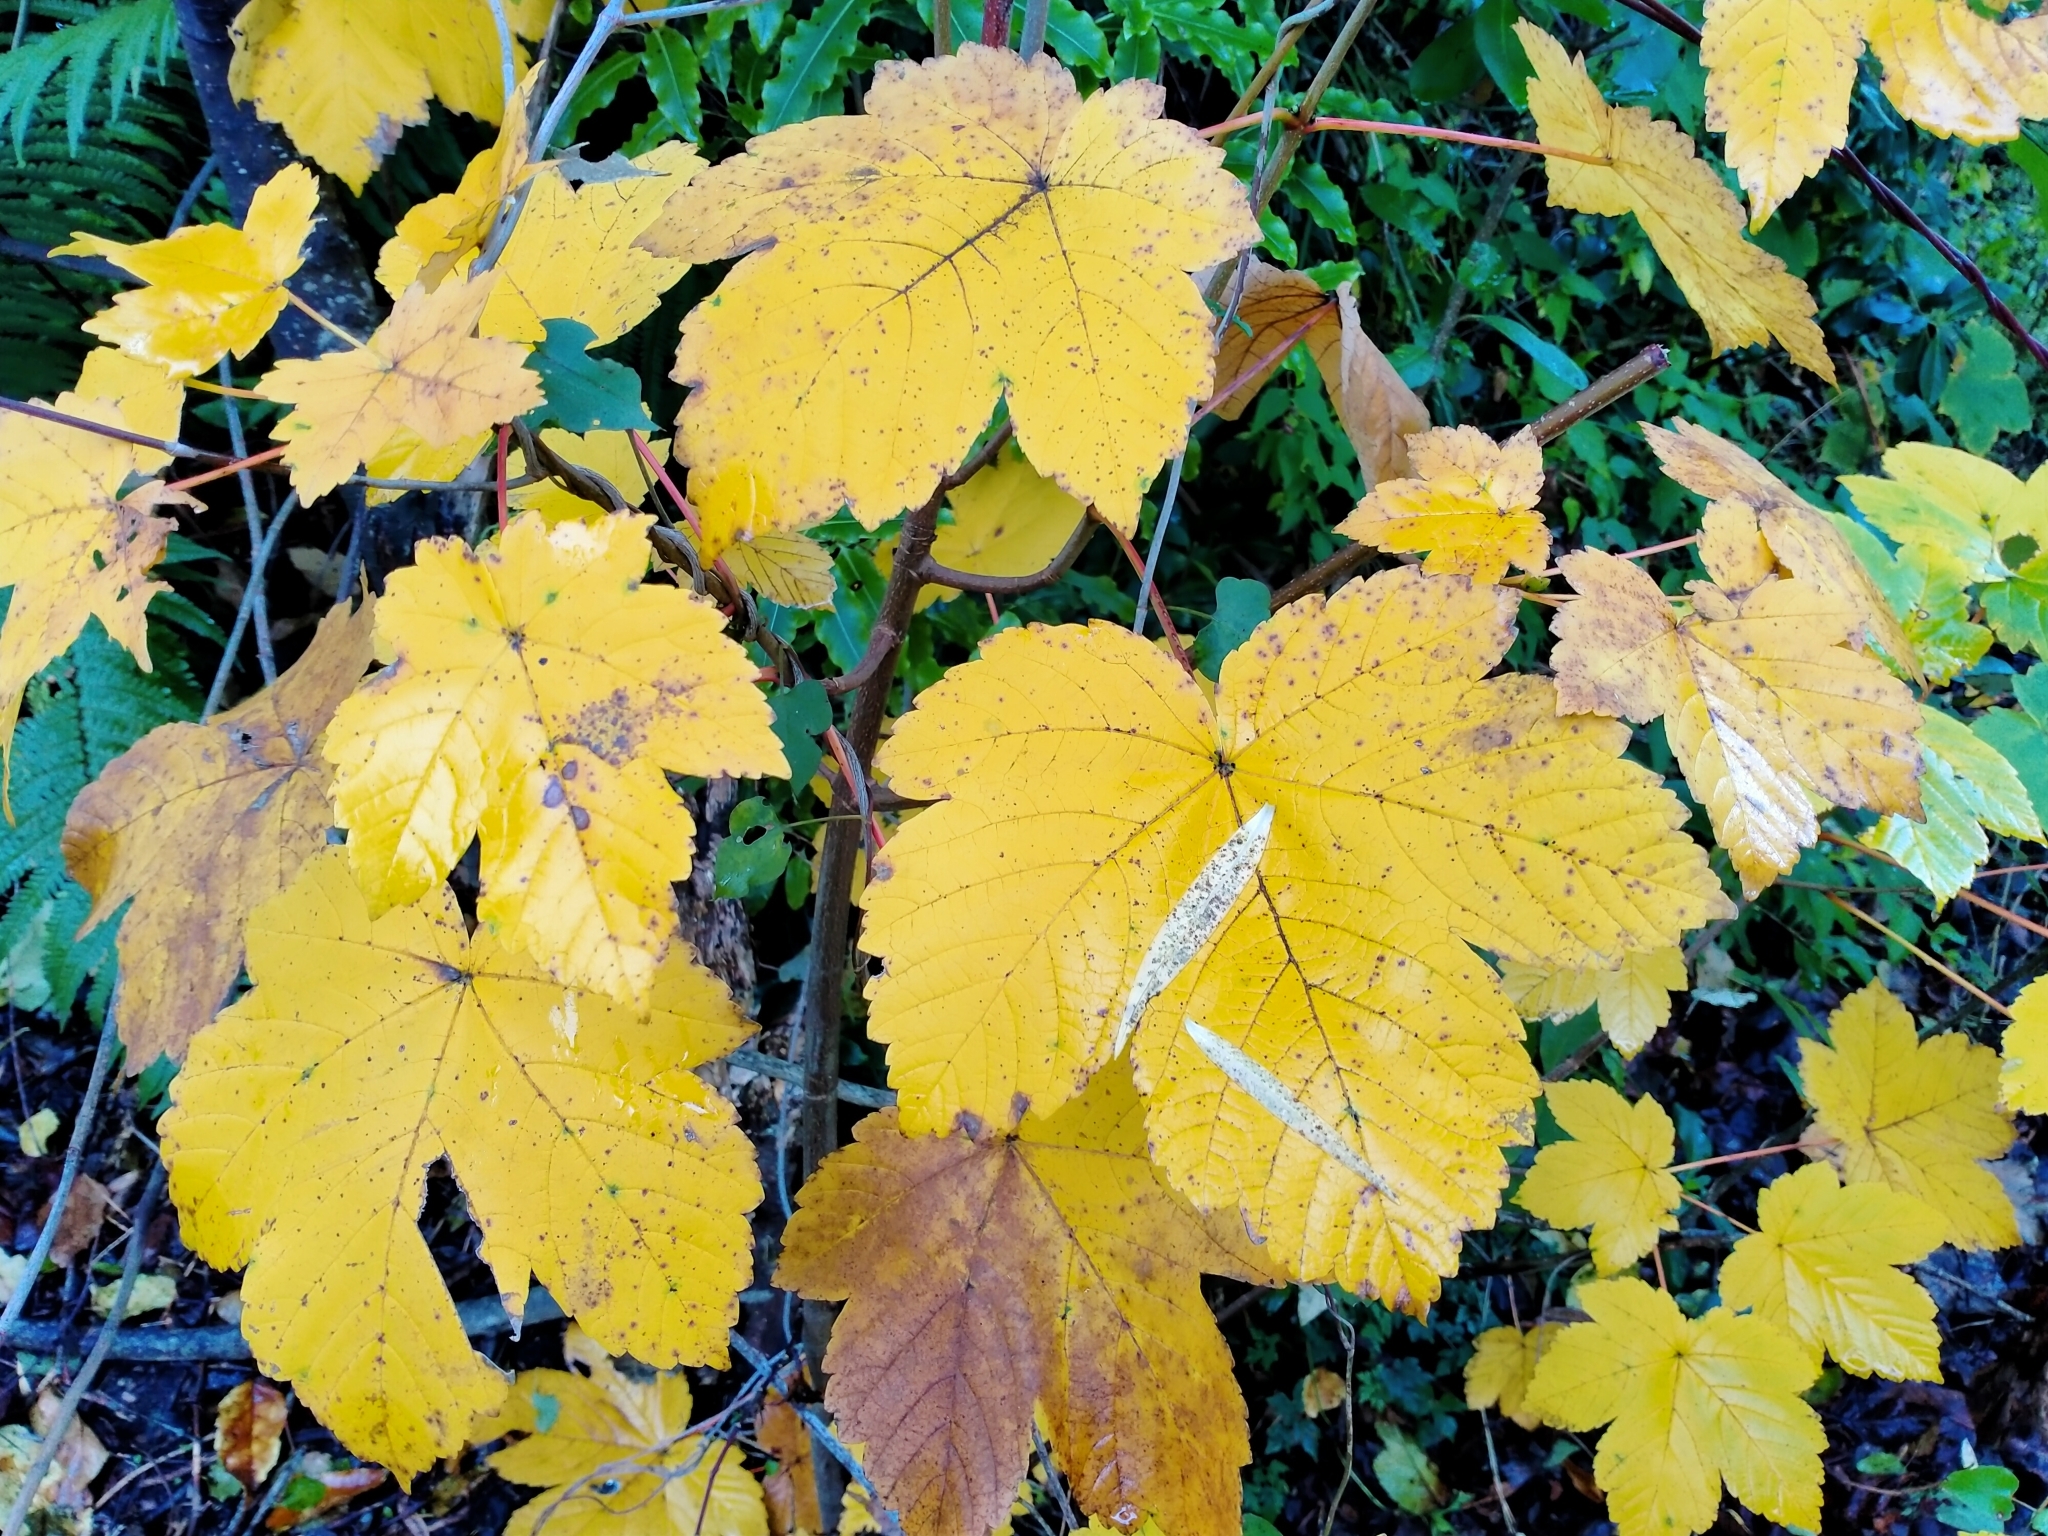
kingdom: Plantae
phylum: Tracheophyta
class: Magnoliopsida
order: Sapindales
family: Sapindaceae
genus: Acer
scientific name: Acer pseudoplatanus
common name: Sycamore
